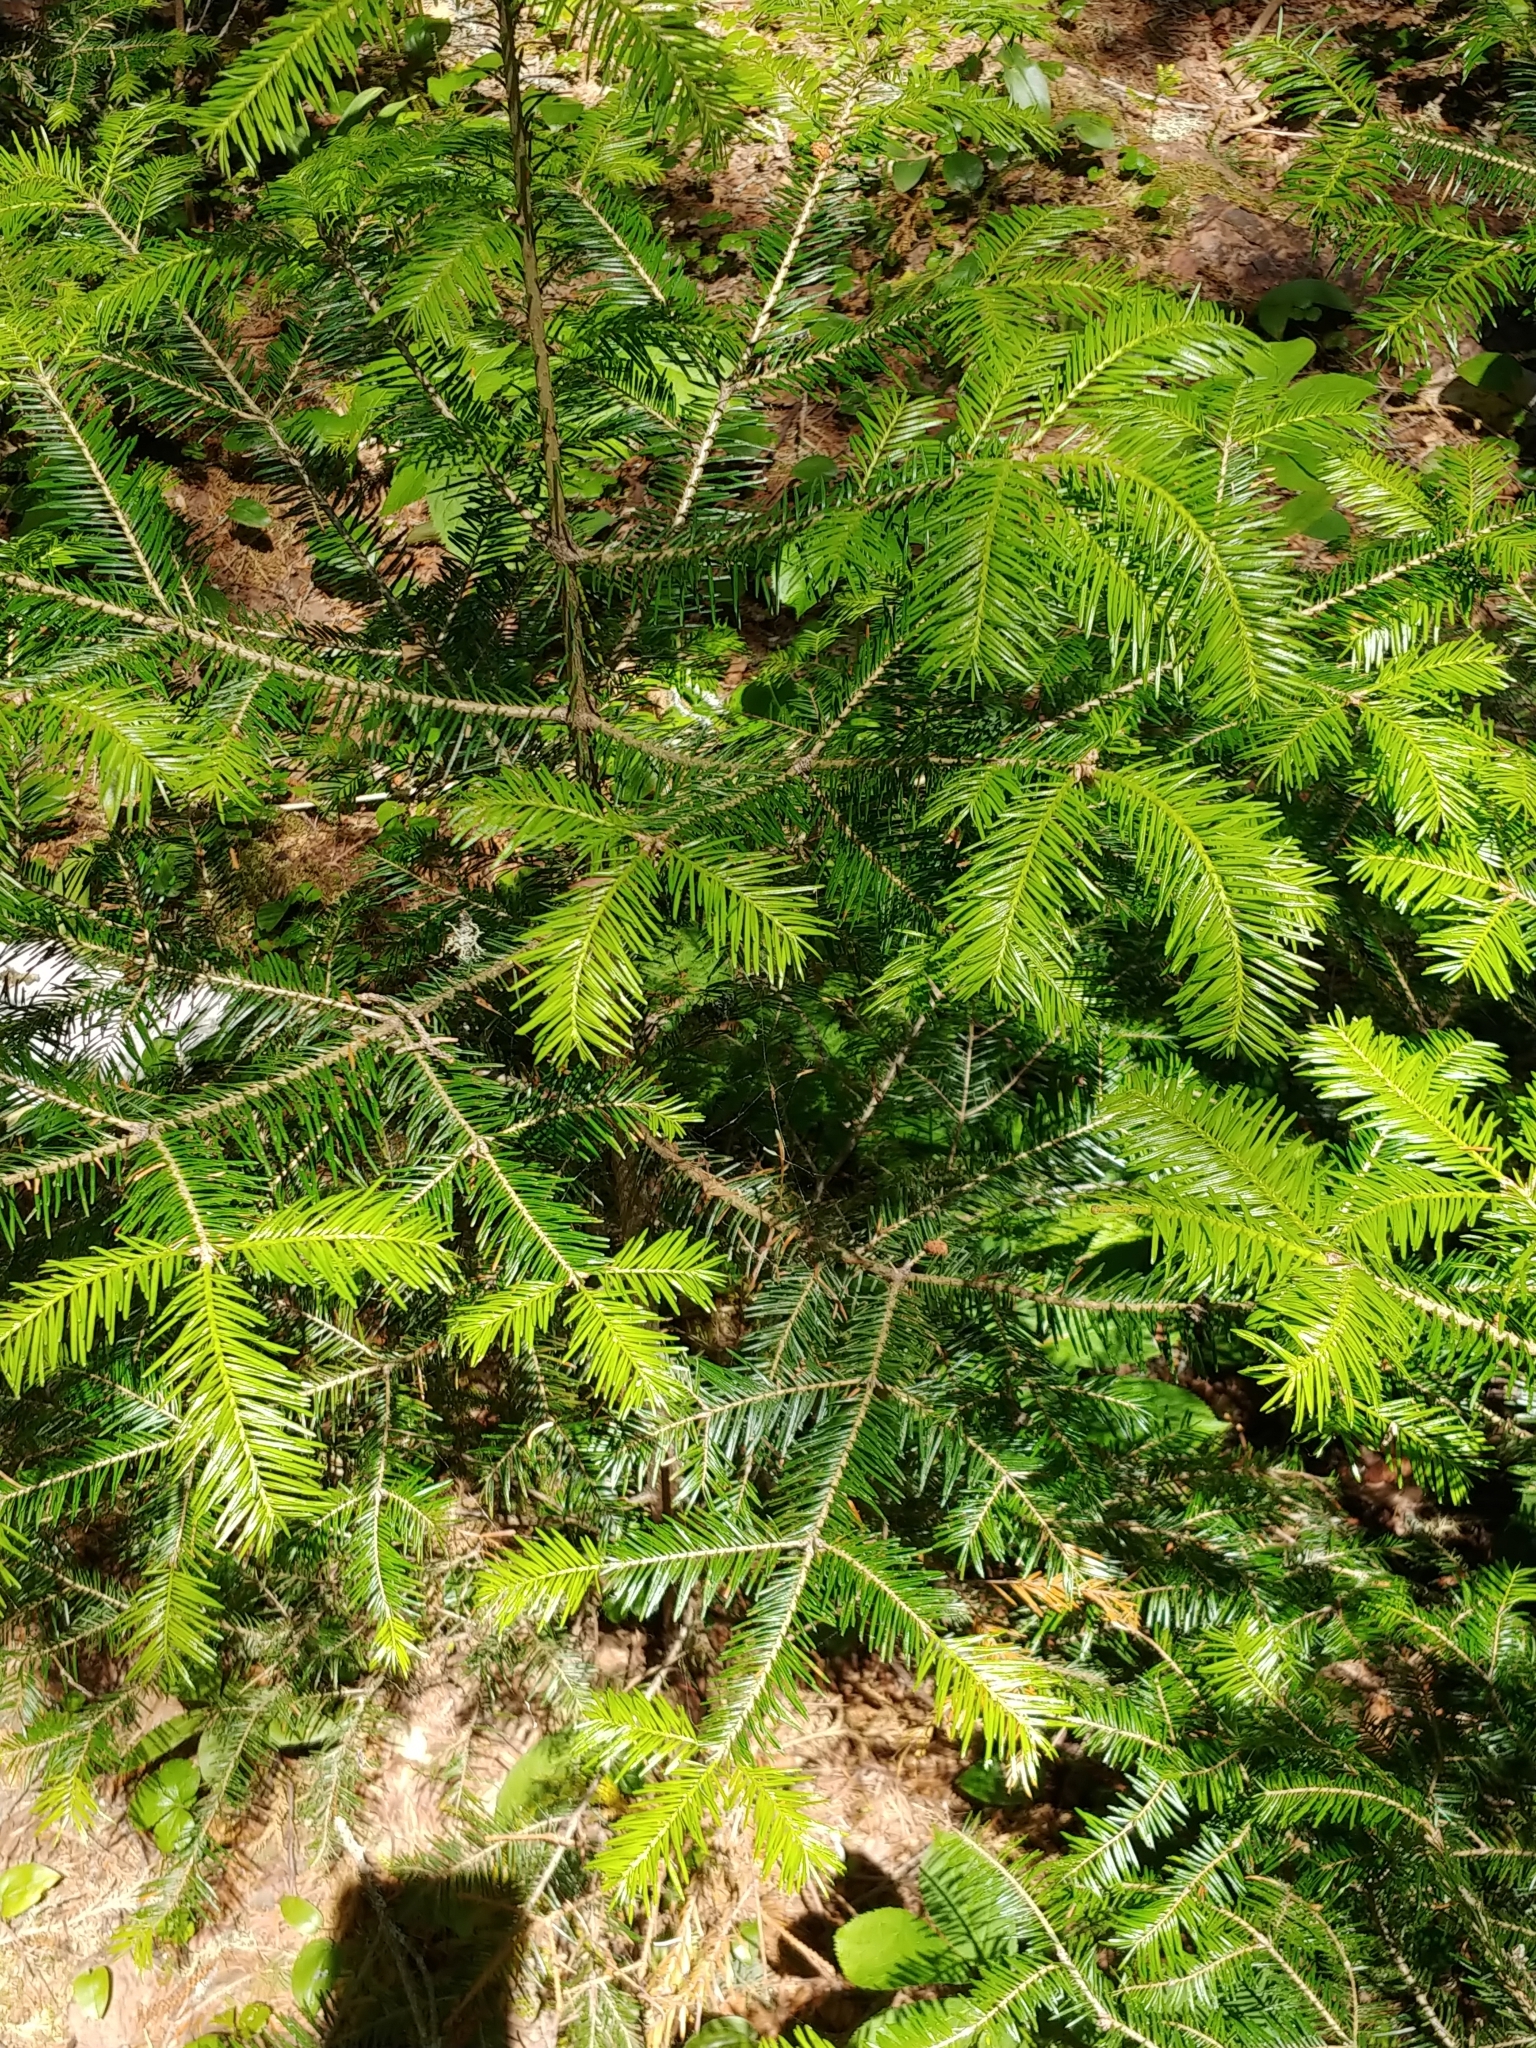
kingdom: Plantae
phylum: Tracheophyta
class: Pinopsida
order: Pinales
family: Pinaceae
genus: Abies
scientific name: Abies balsamea
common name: Balsam fir
